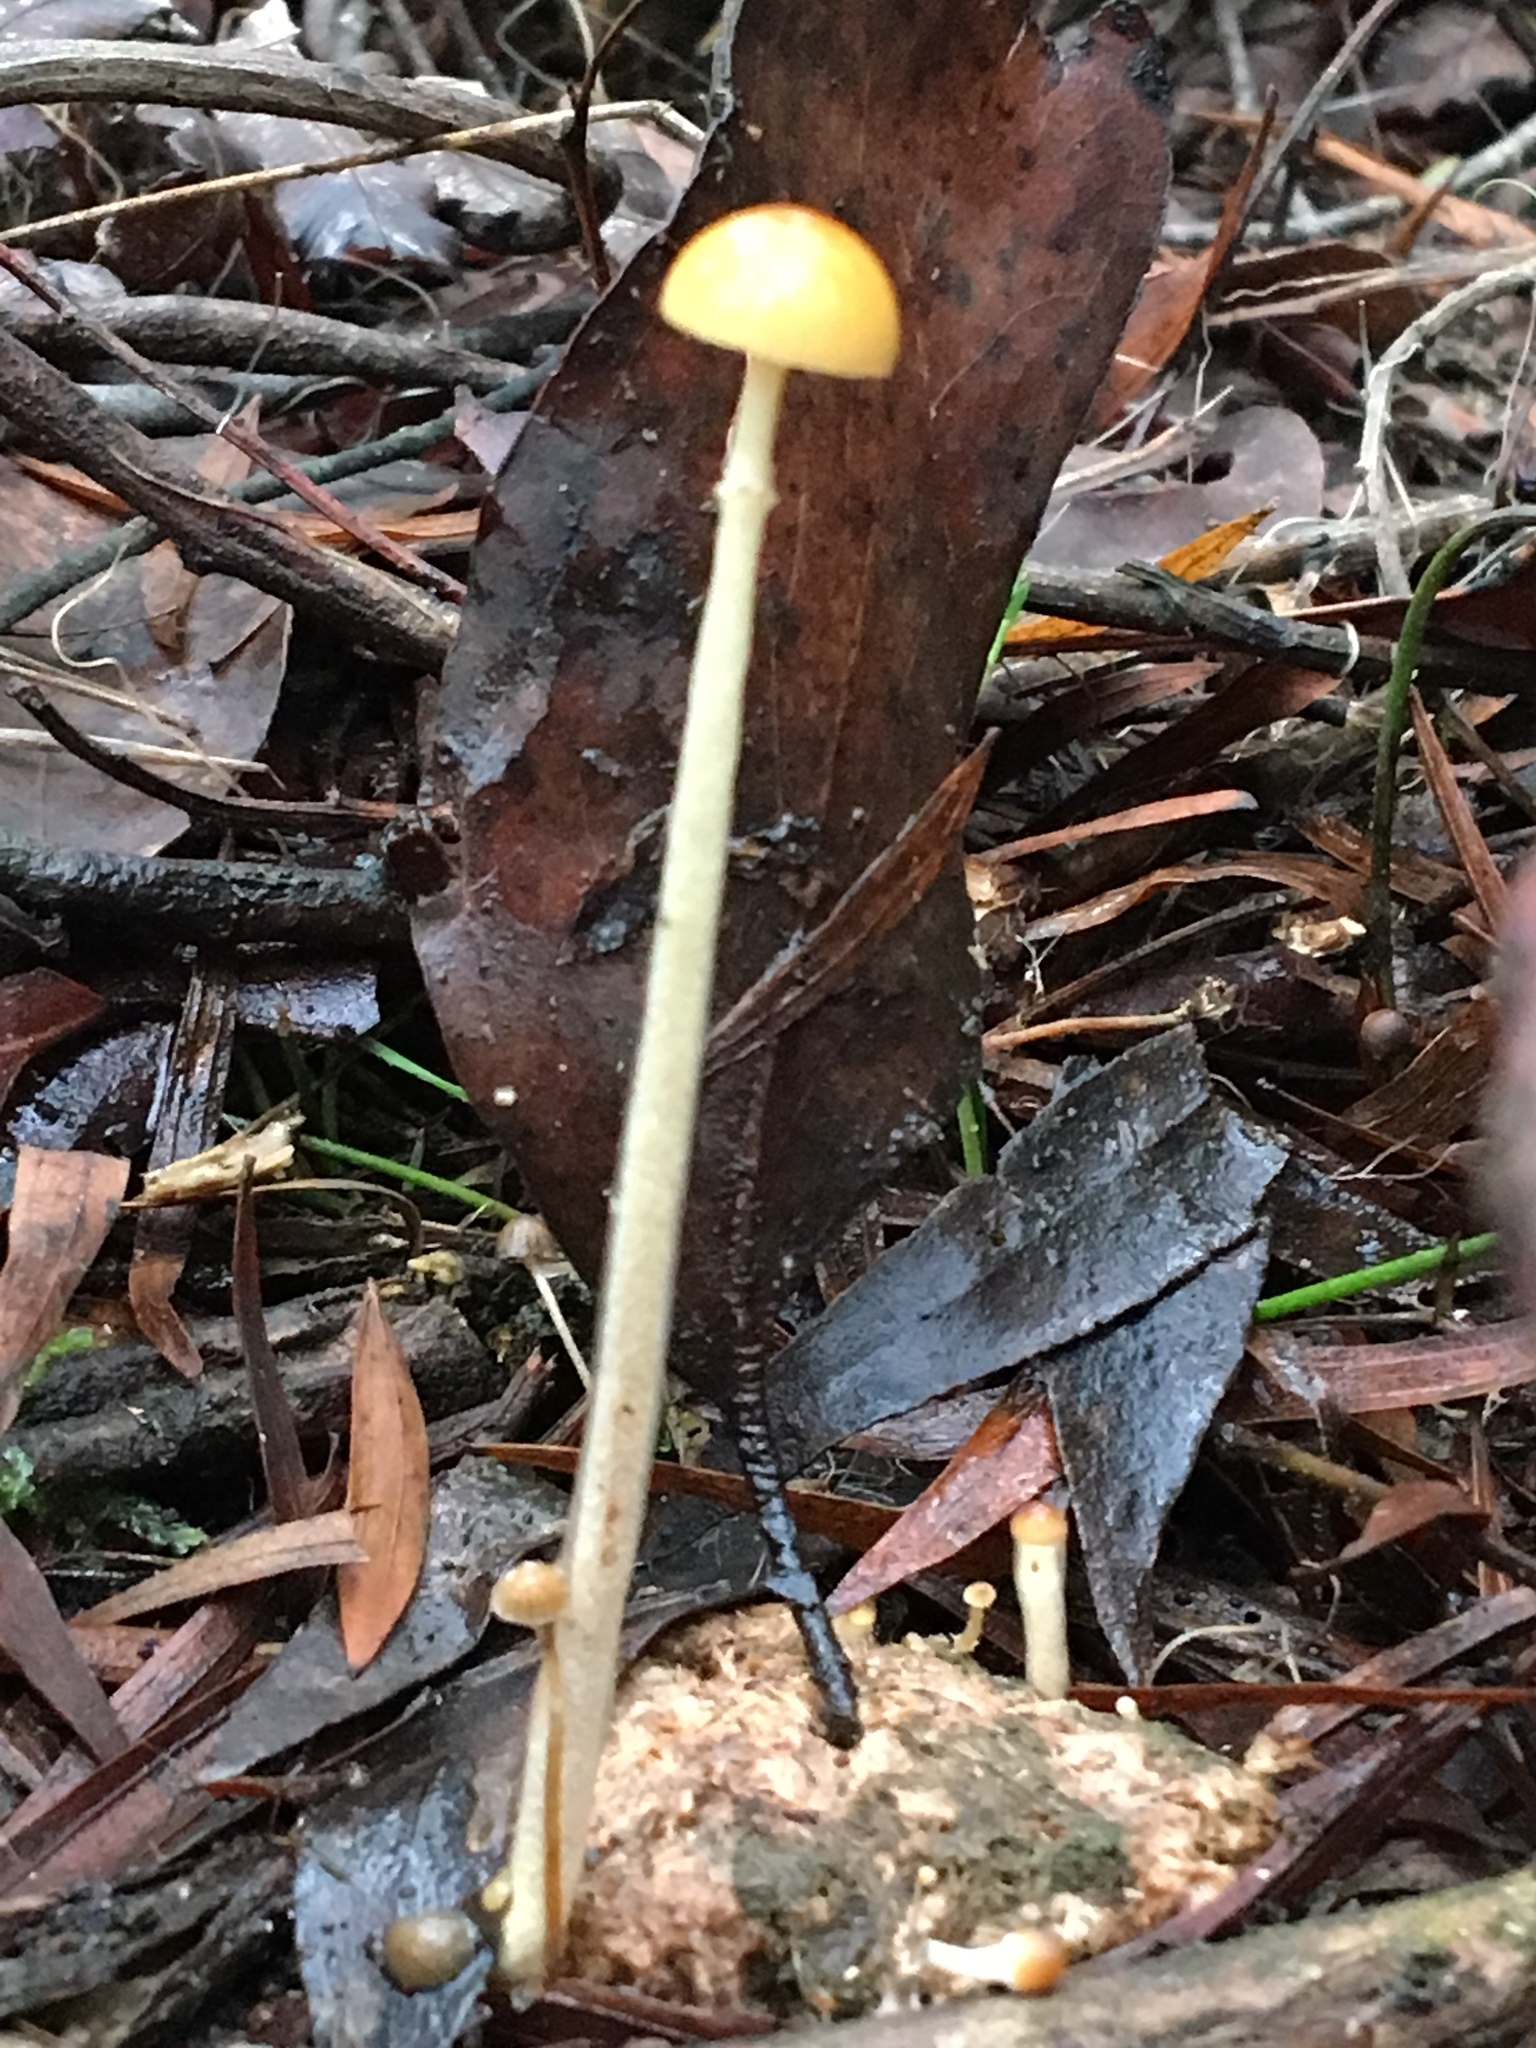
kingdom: Fungi
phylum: Basidiomycota
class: Agaricomycetes
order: Agaricales
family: Strophariaceae
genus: Protostropharia
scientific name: Protostropharia semiglobata
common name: Dung roundhead
